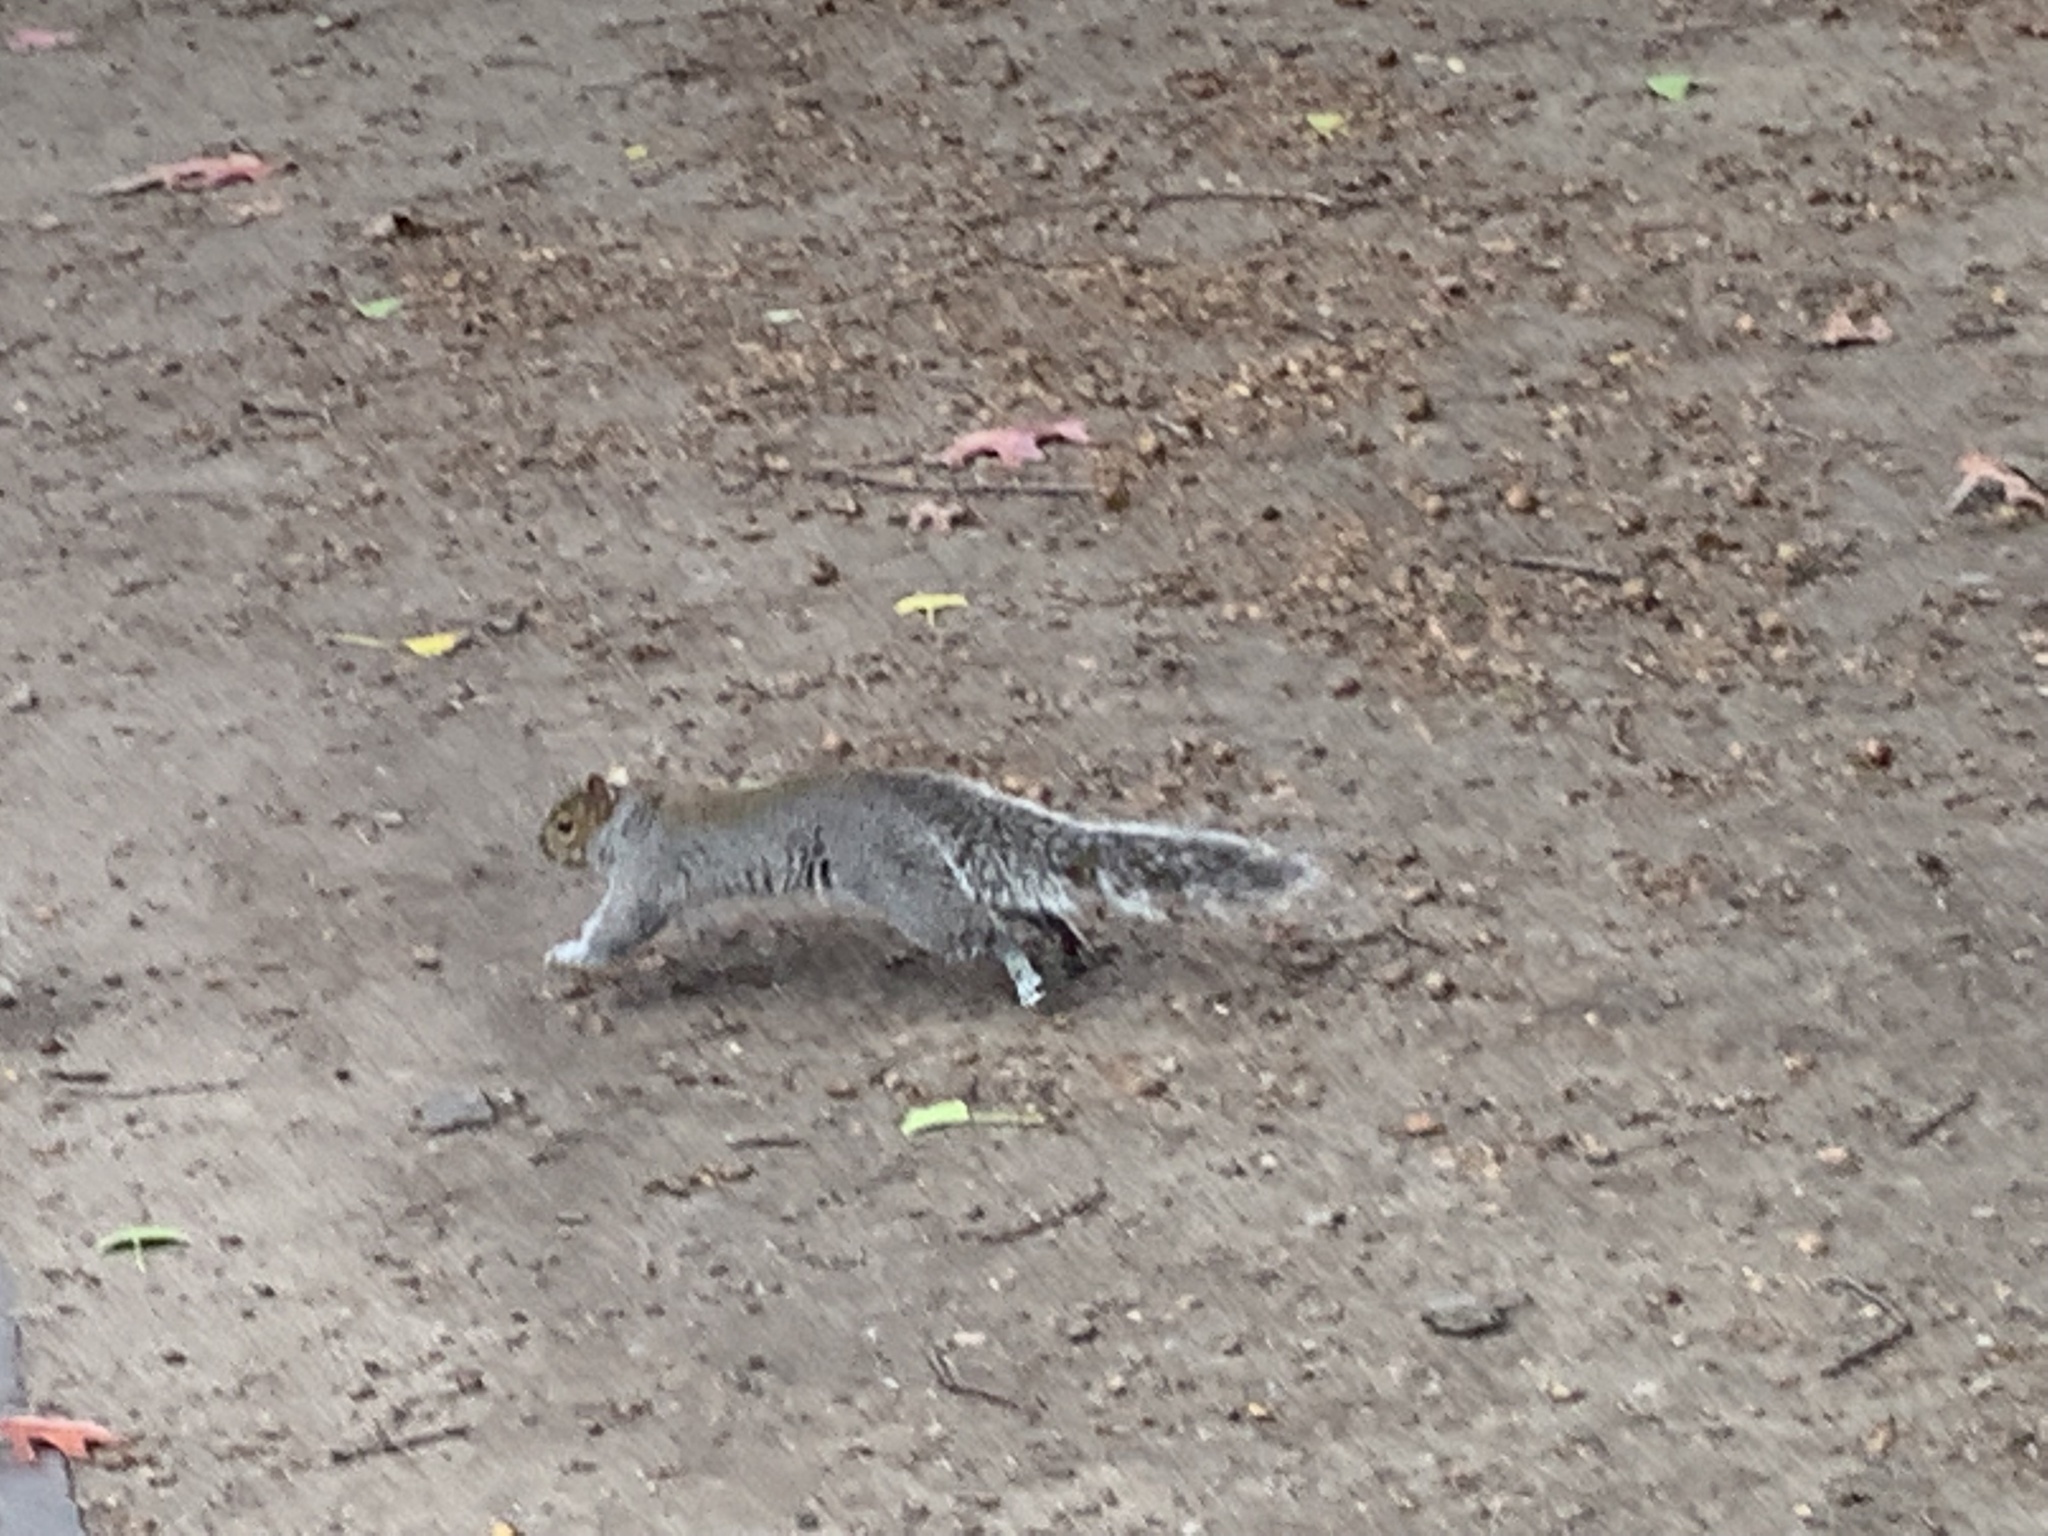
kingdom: Animalia
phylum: Chordata
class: Mammalia
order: Rodentia
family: Sciuridae
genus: Sciurus
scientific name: Sciurus carolinensis
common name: Eastern gray squirrel
